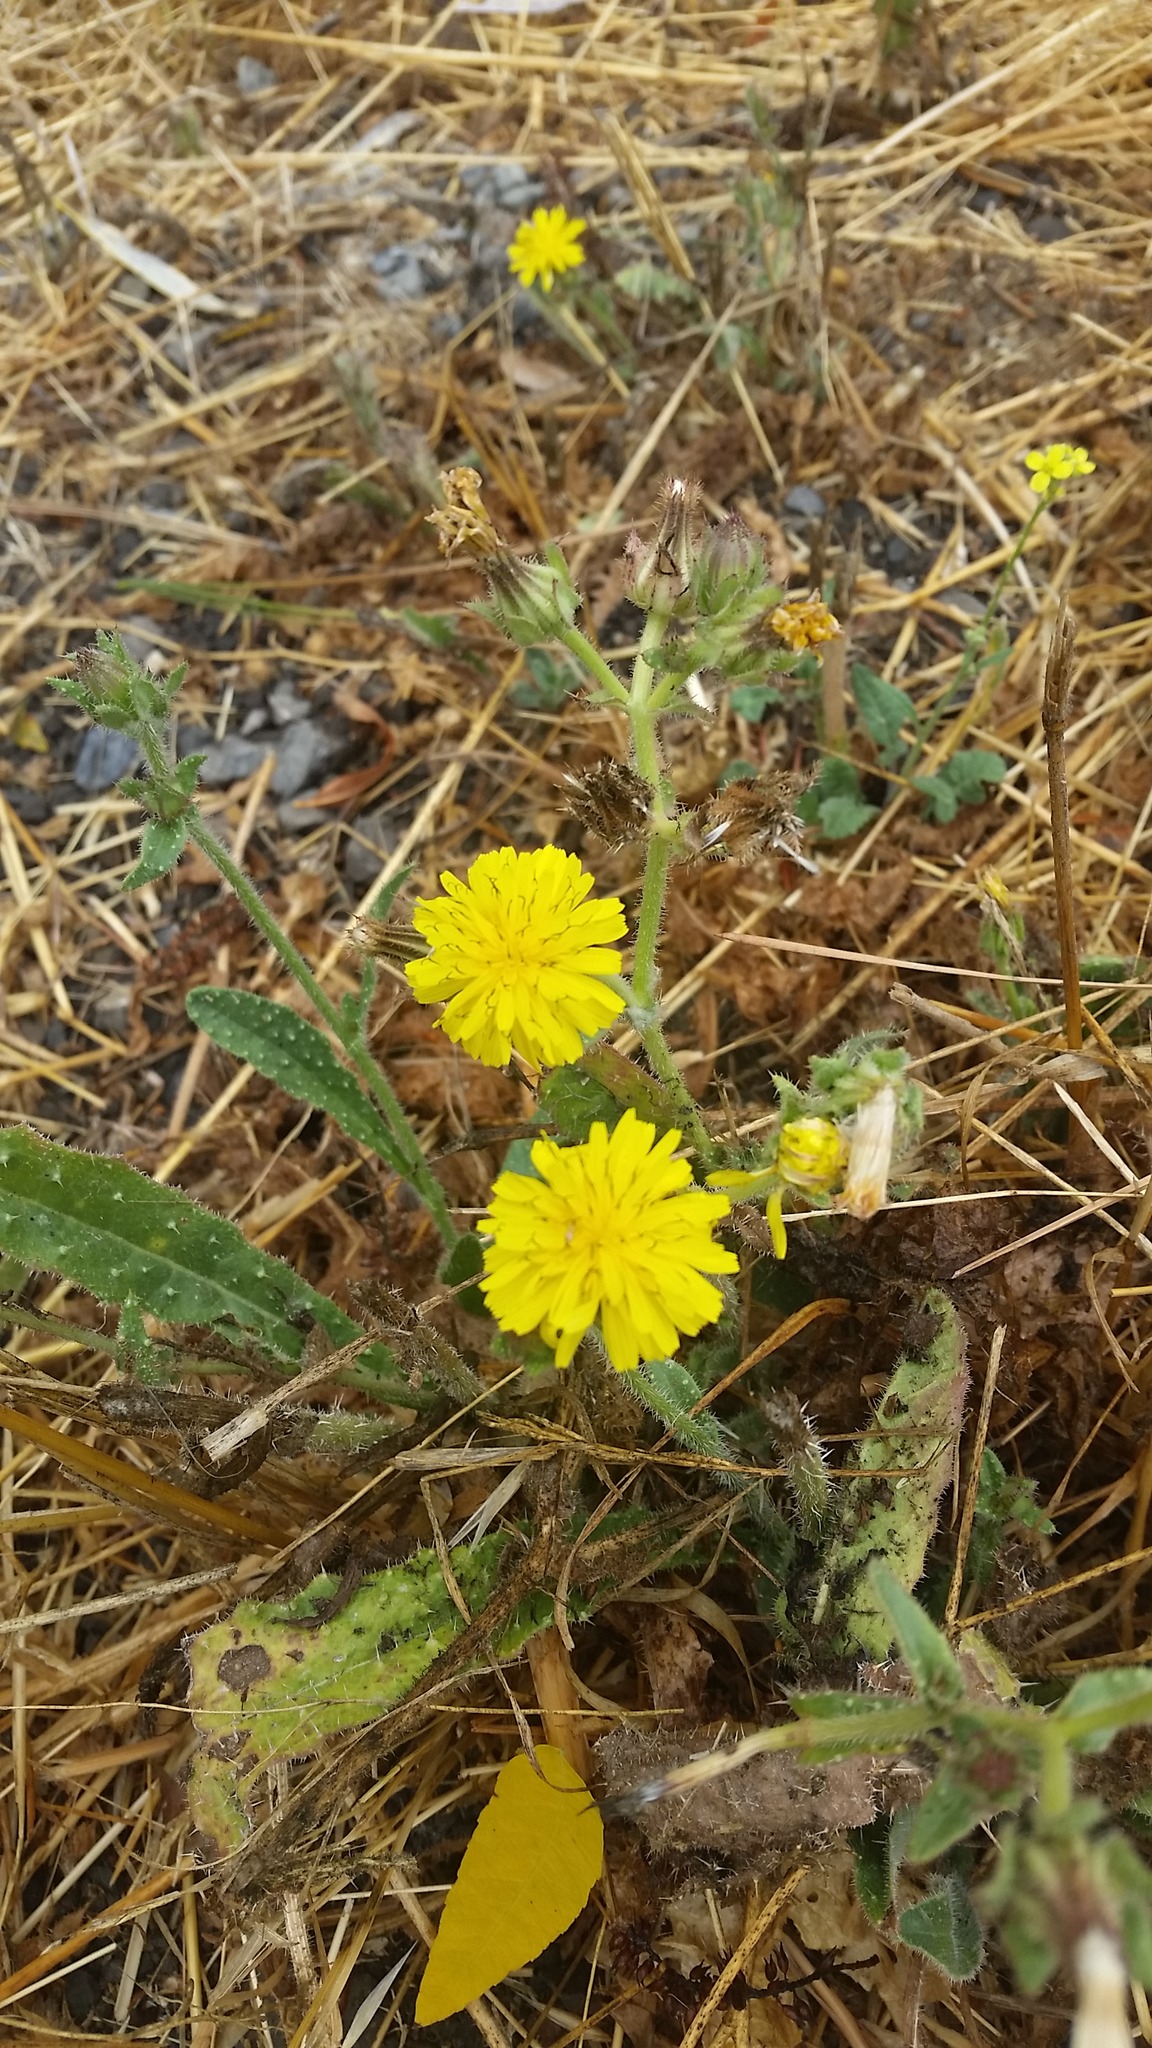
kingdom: Plantae
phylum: Tracheophyta
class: Magnoliopsida
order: Asterales
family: Asteraceae
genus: Helminthotheca
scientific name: Helminthotheca echioides
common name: Ox-tongue
